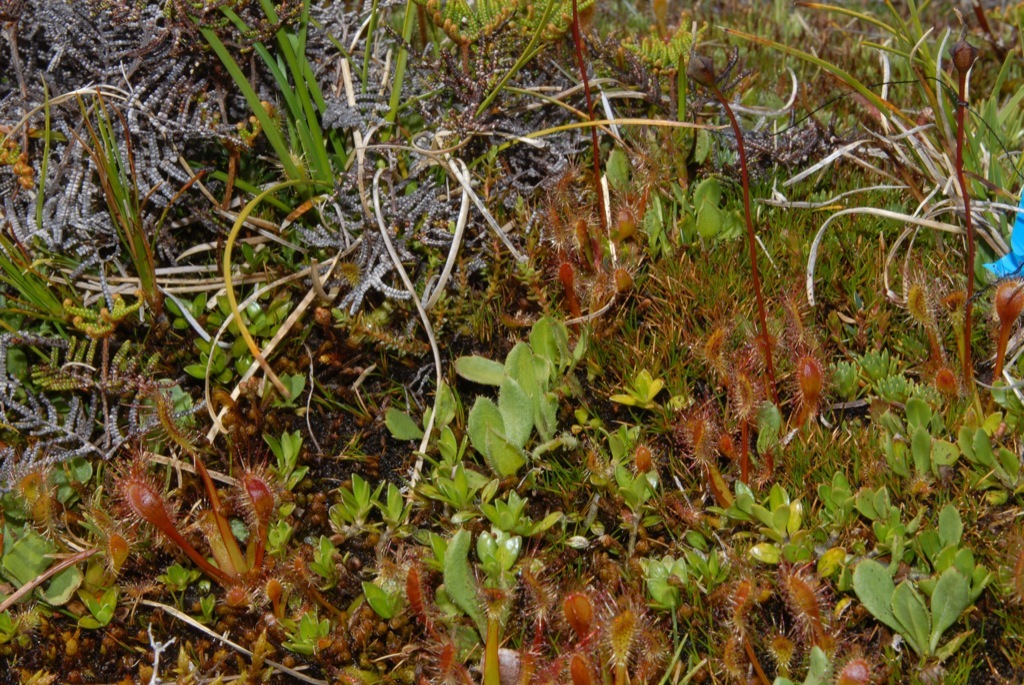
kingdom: Plantae
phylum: Tracheophyta
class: Magnoliopsida
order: Caryophyllales
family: Droseraceae
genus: Drosera
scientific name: Drosera stenopetala
